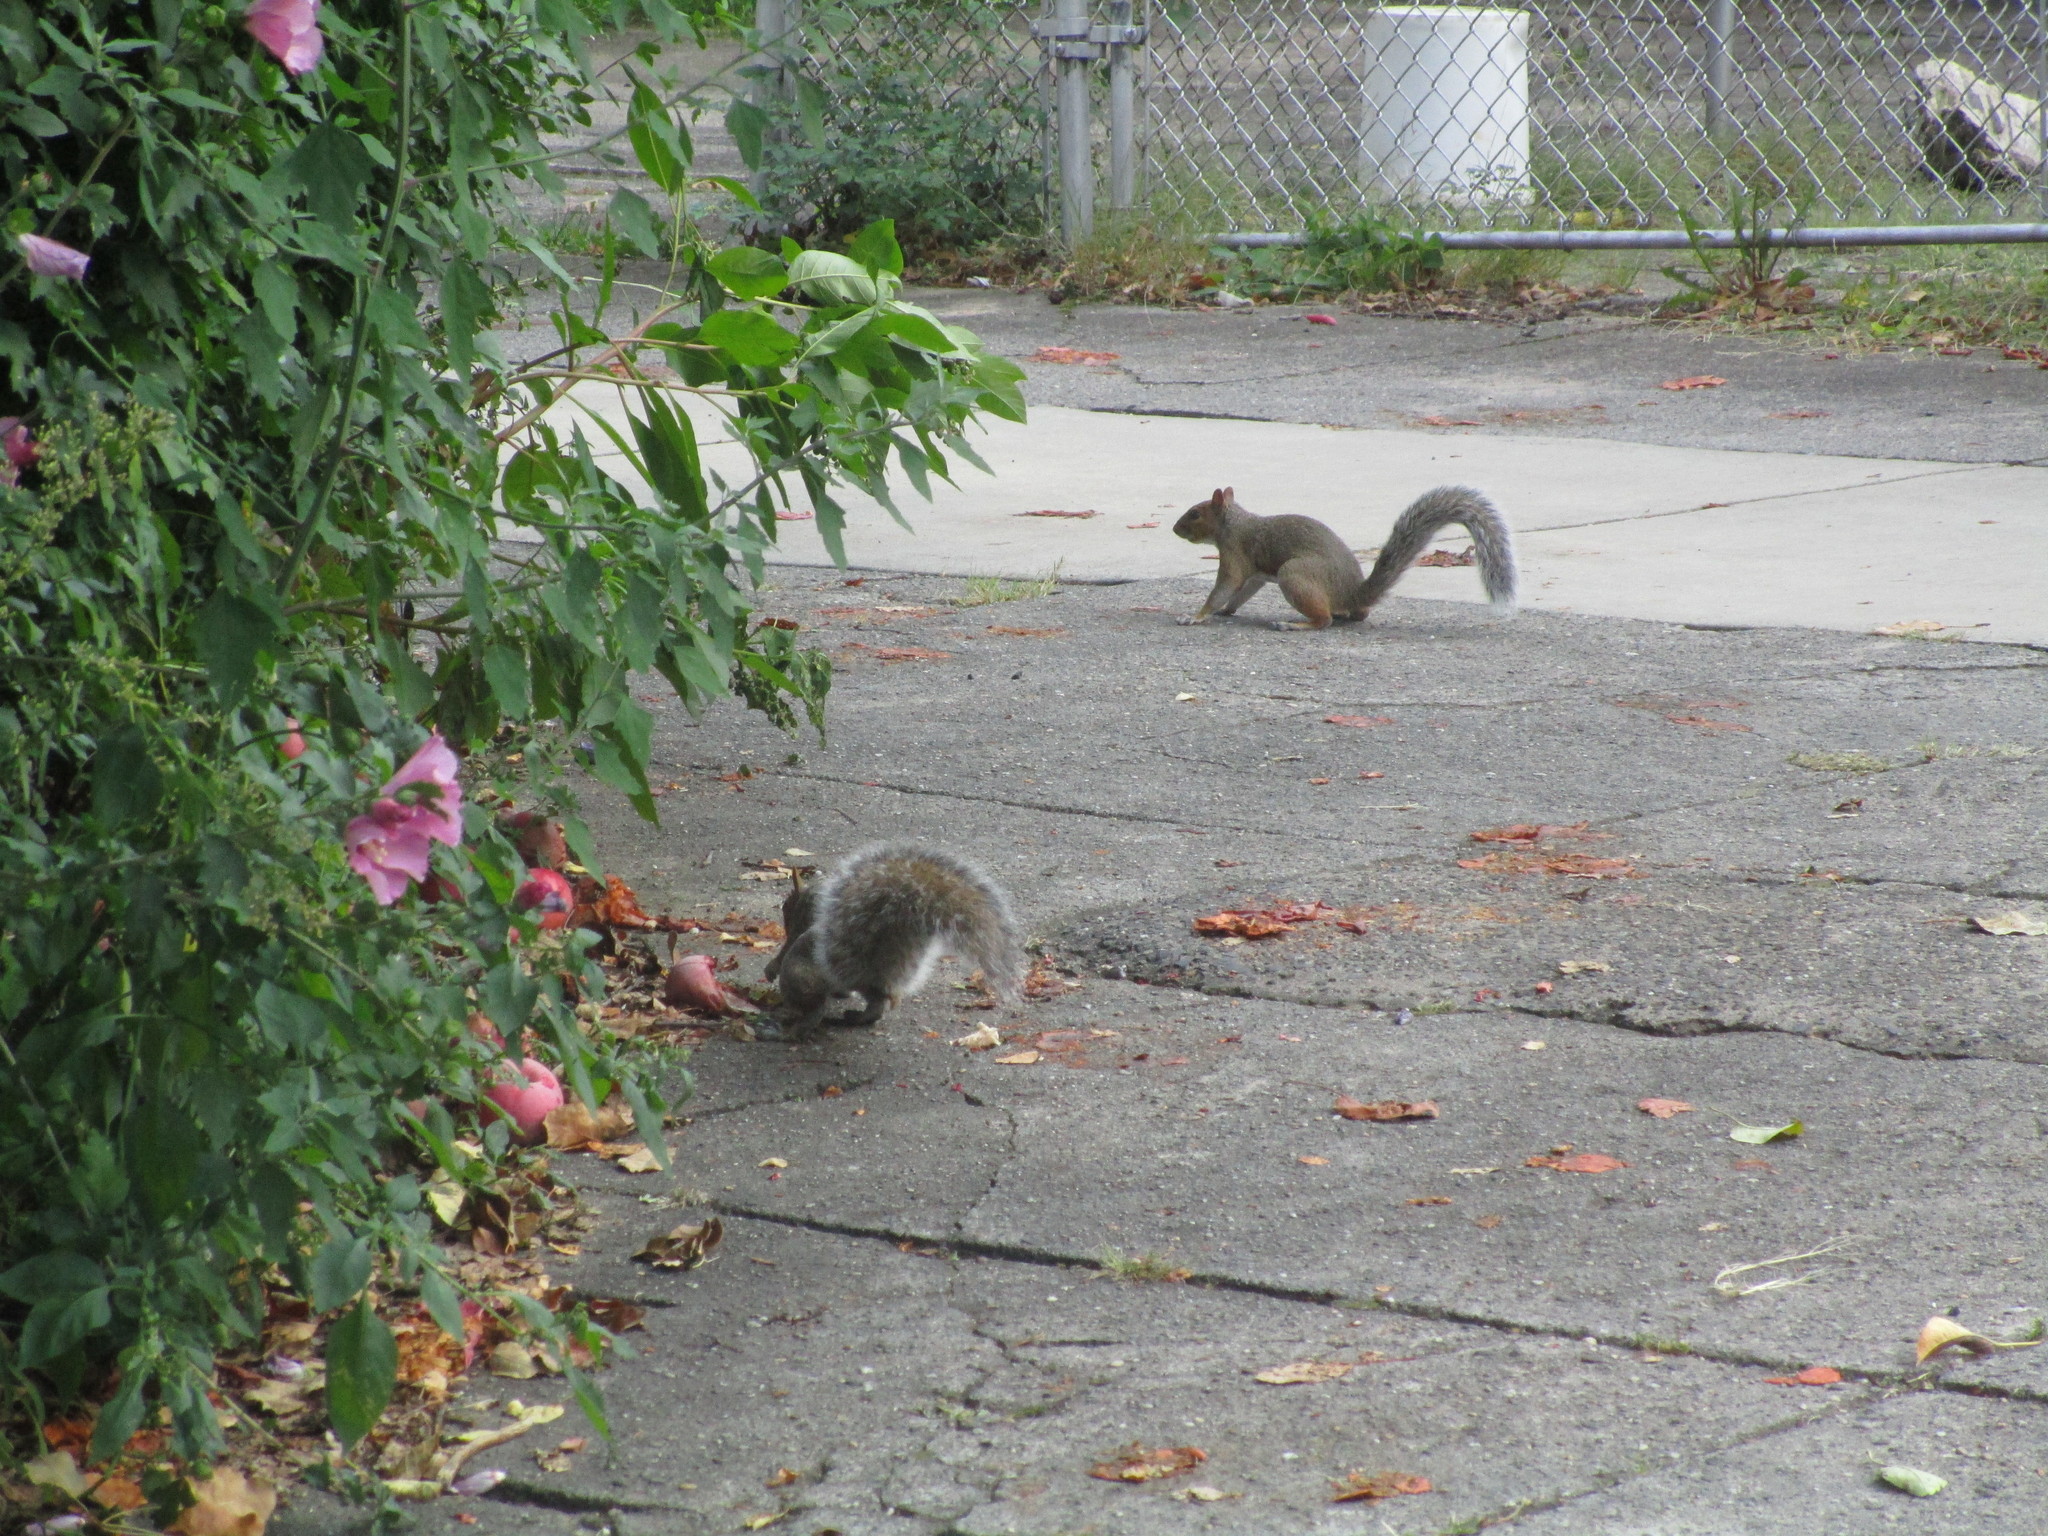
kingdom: Animalia
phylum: Chordata
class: Mammalia
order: Rodentia
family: Sciuridae
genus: Sciurus
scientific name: Sciurus carolinensis
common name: Eastern gray squirrel
